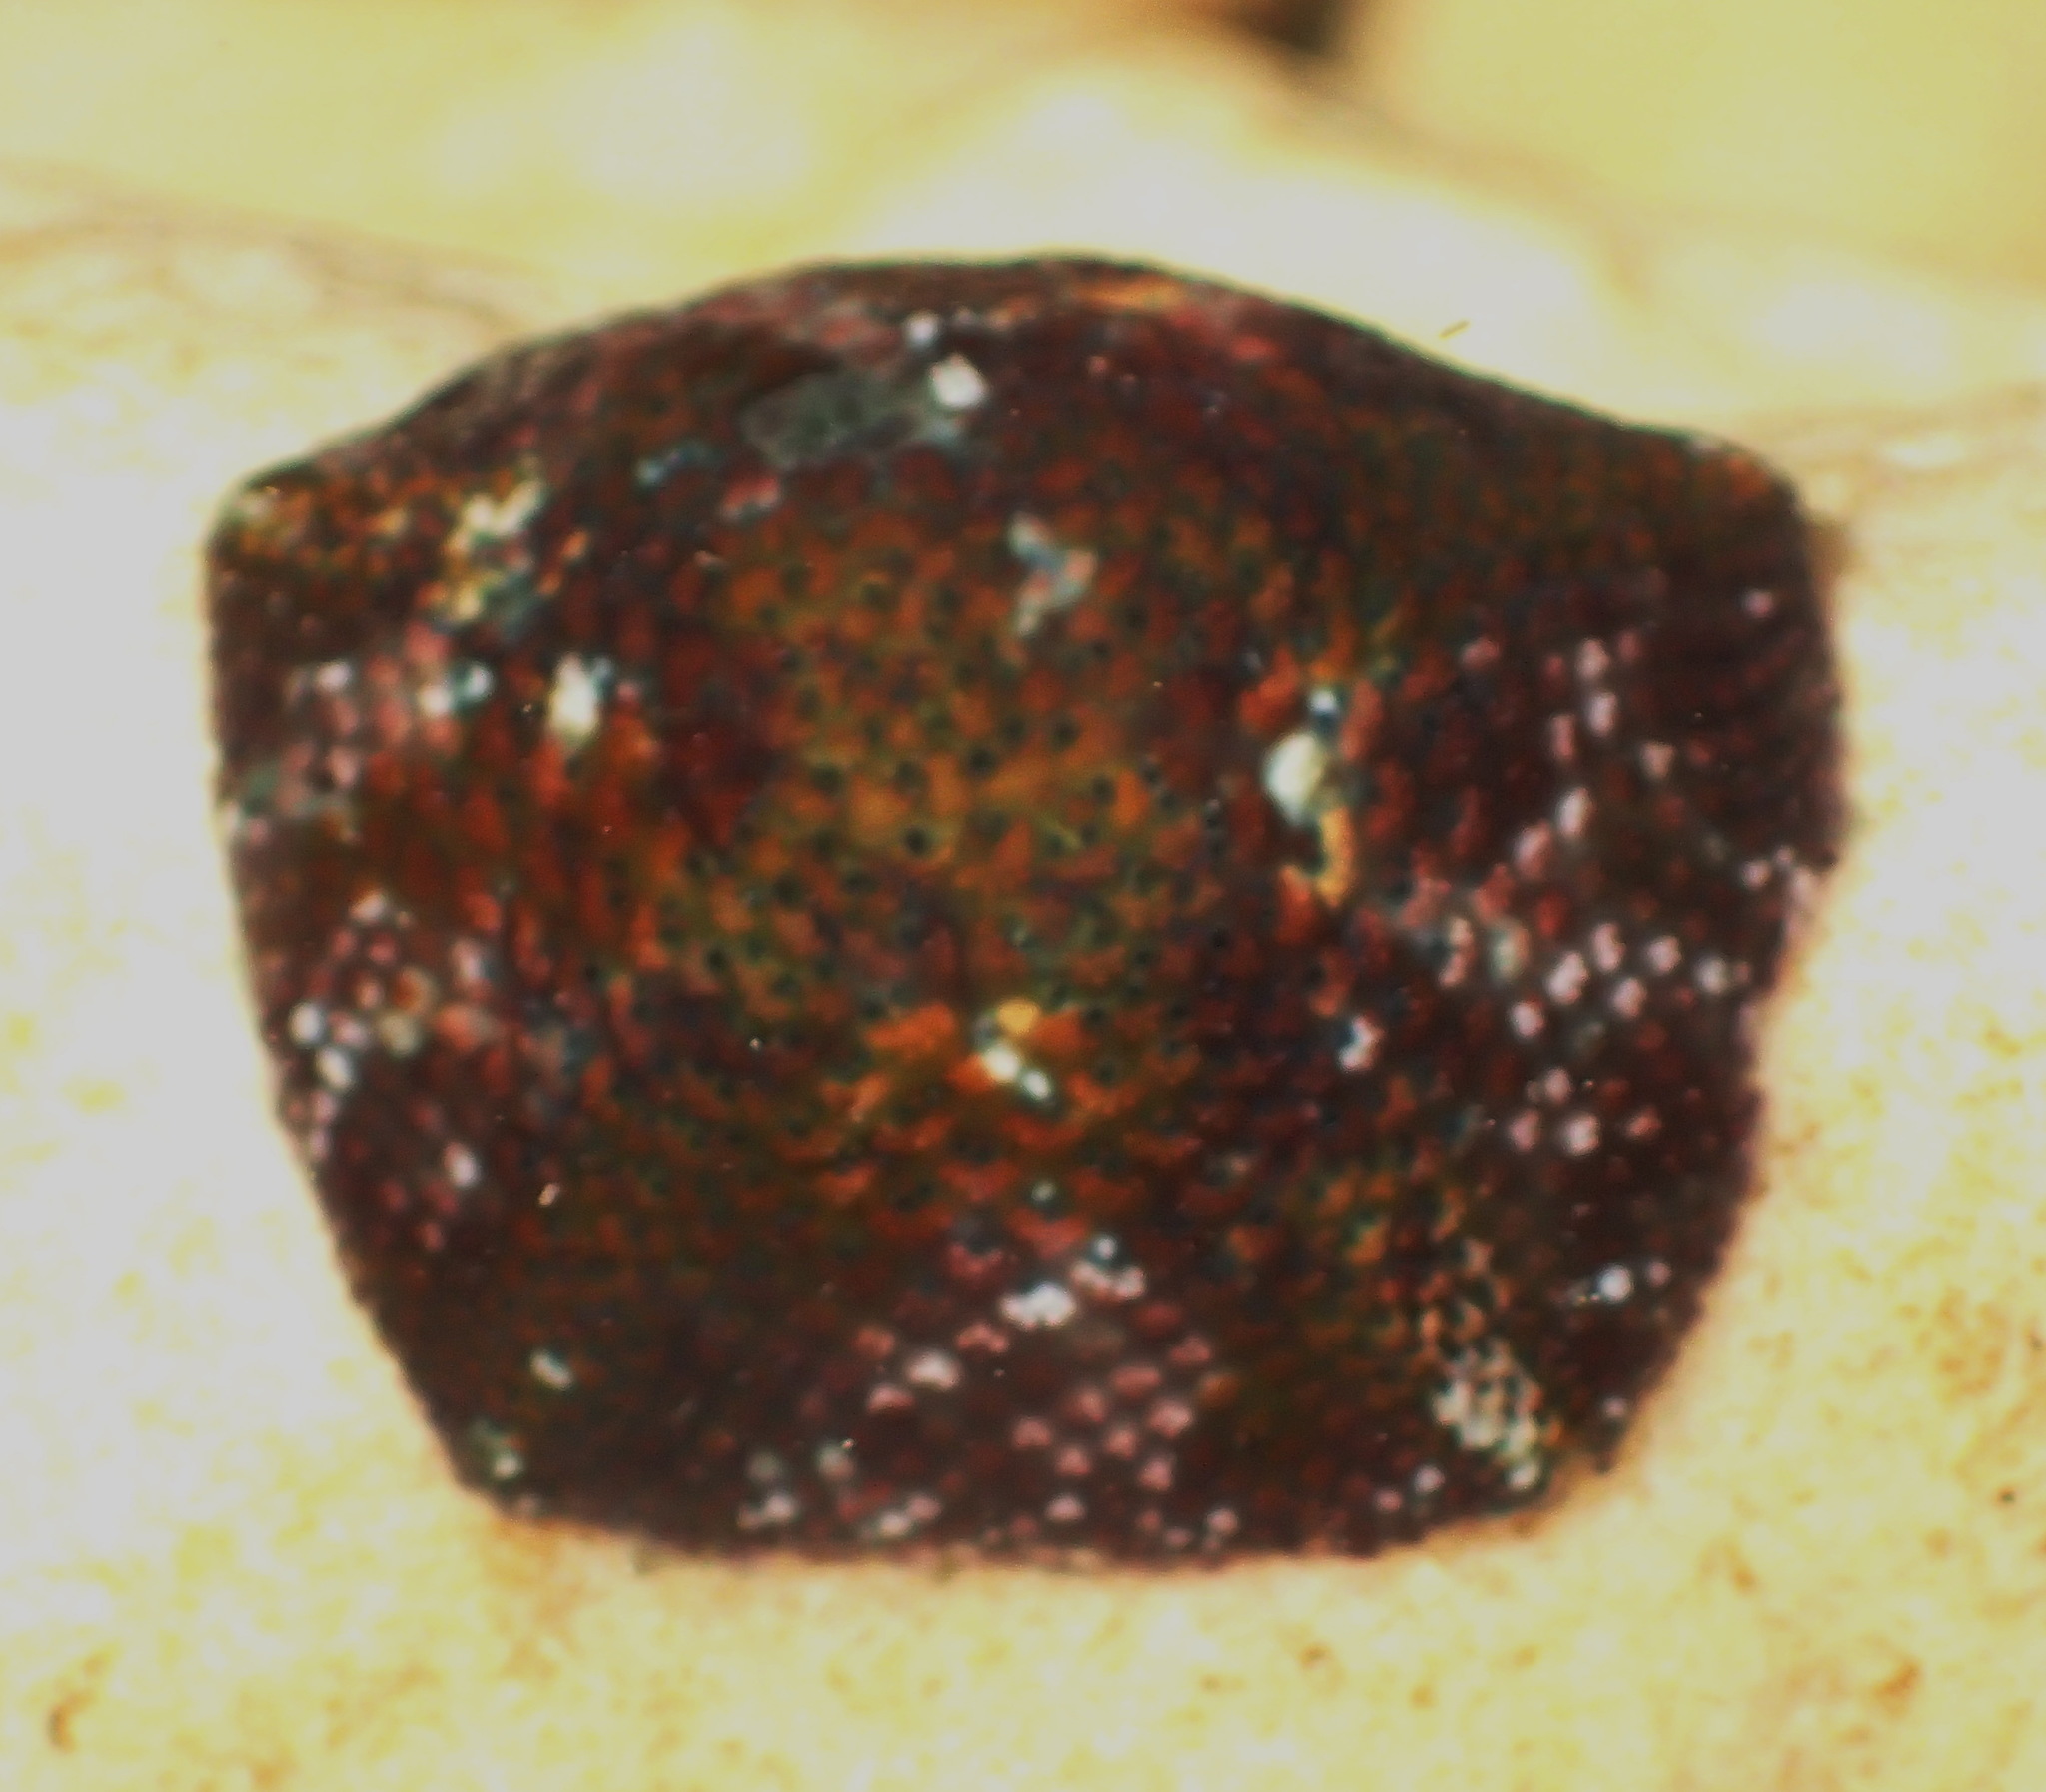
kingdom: Animalia
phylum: Echinodermata
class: Asteroidea
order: Valvatida
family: Asterinidae
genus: Parvulastra
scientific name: Parvulastra exigua
